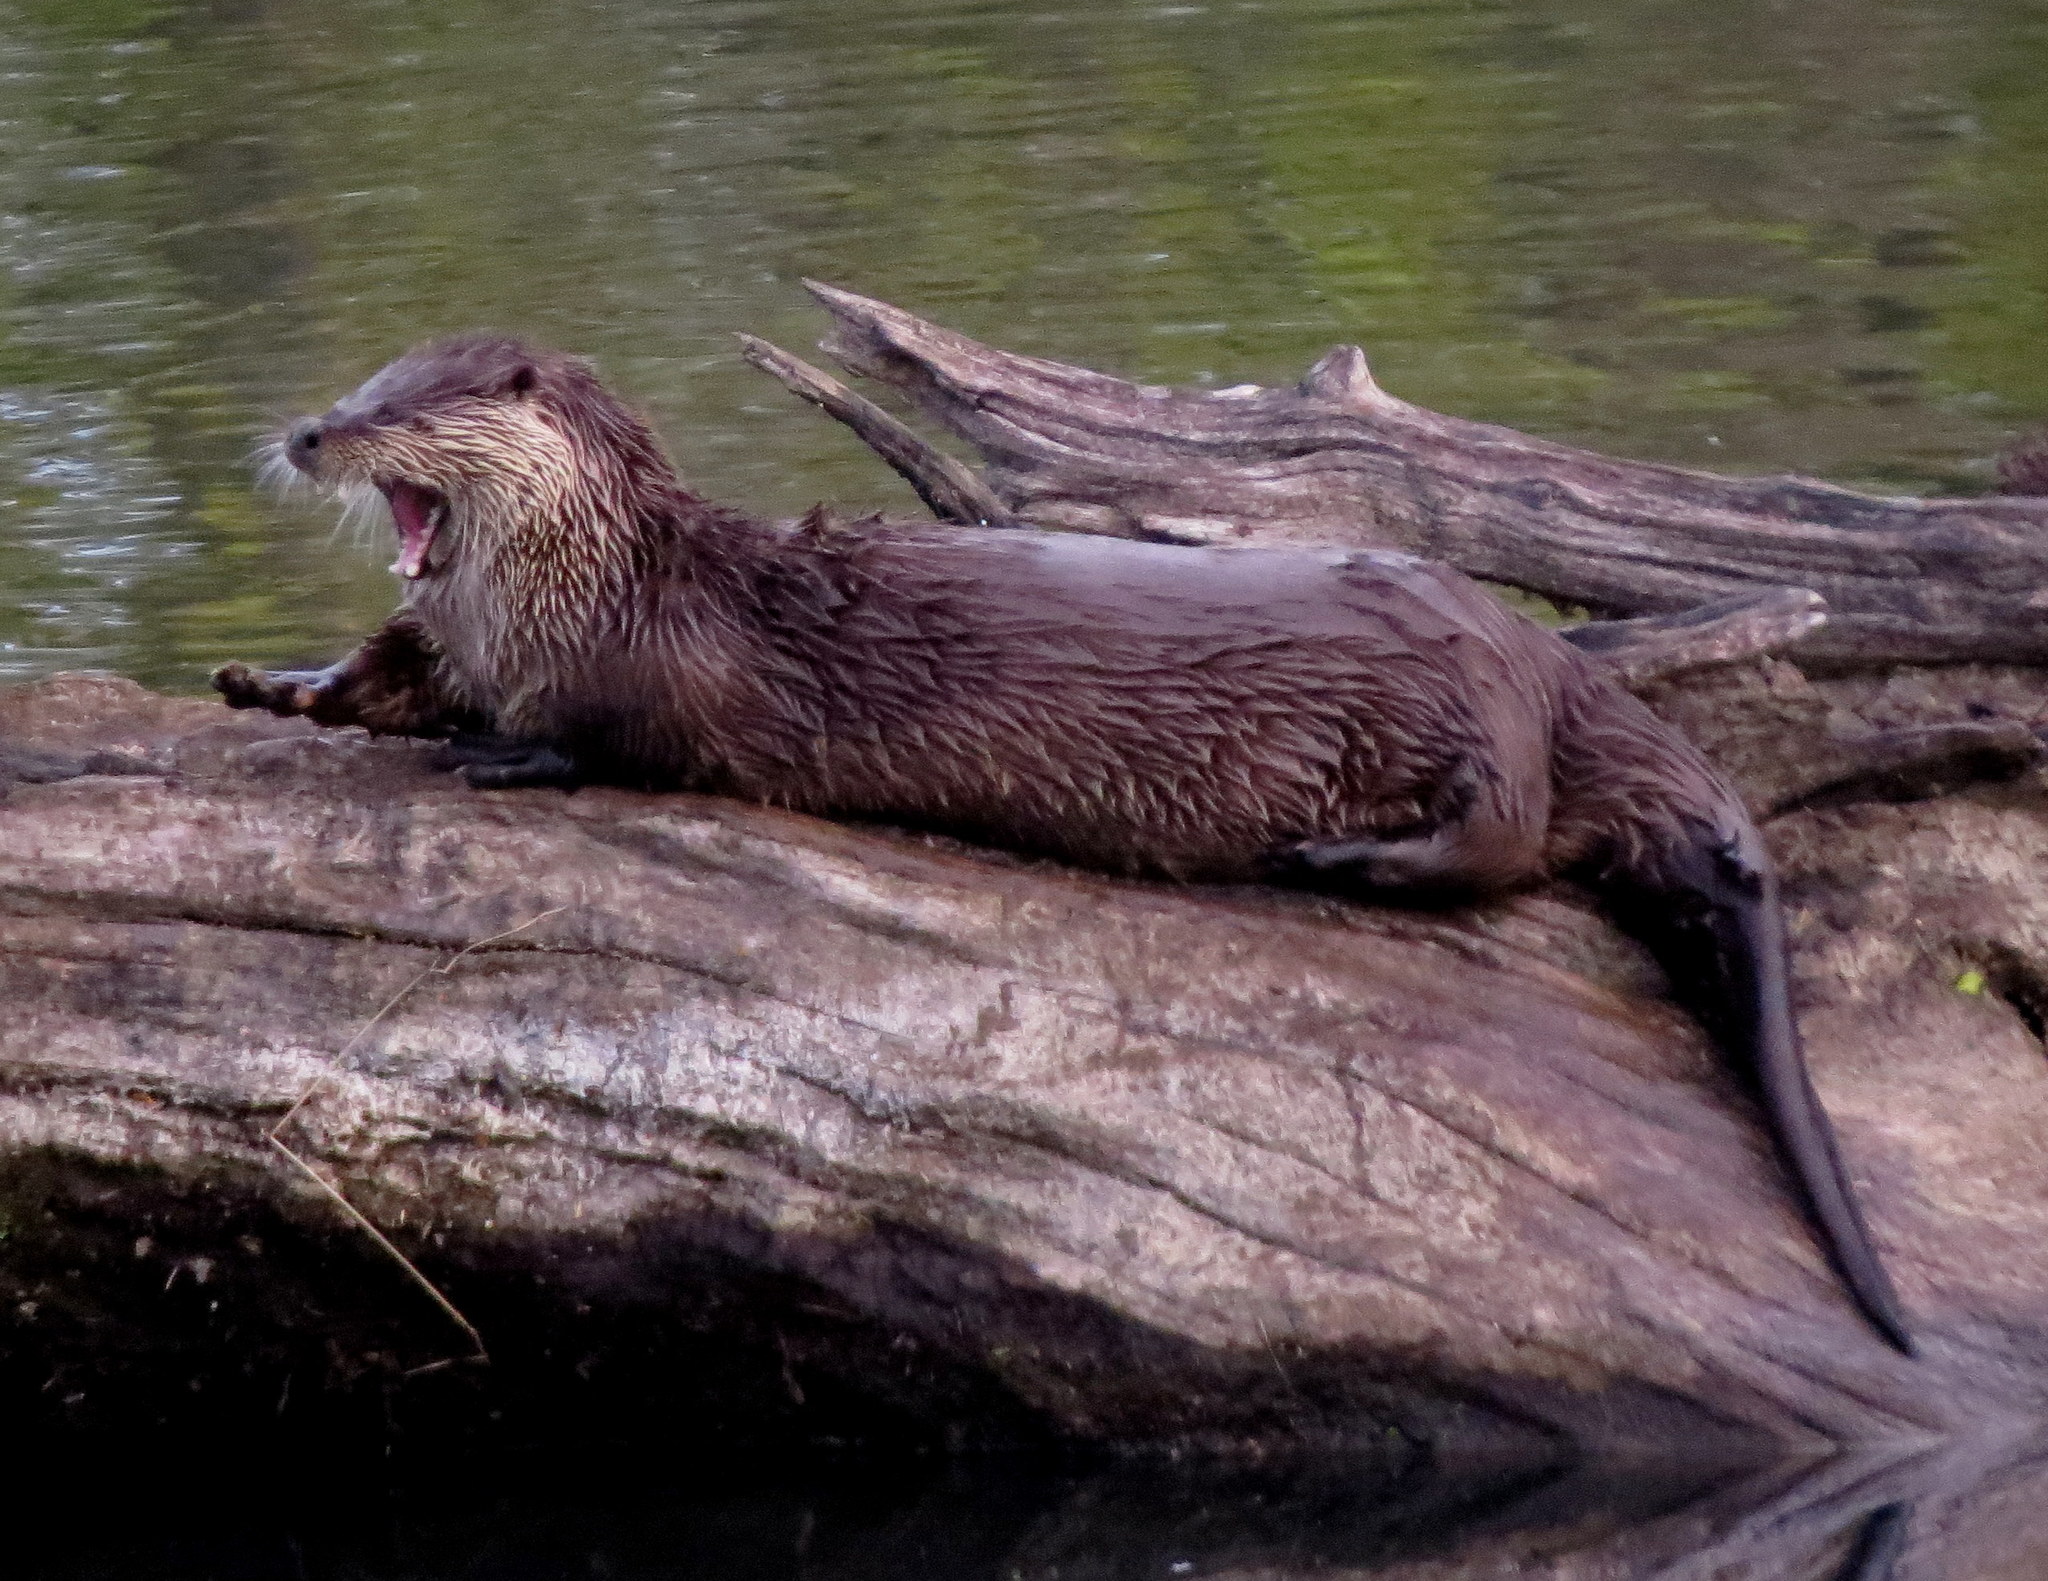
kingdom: Animalia
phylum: Chordata
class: Mammalia
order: Carnivora
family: Mustelidae
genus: Lontra
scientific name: Lontra canadensis
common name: North american river otter
